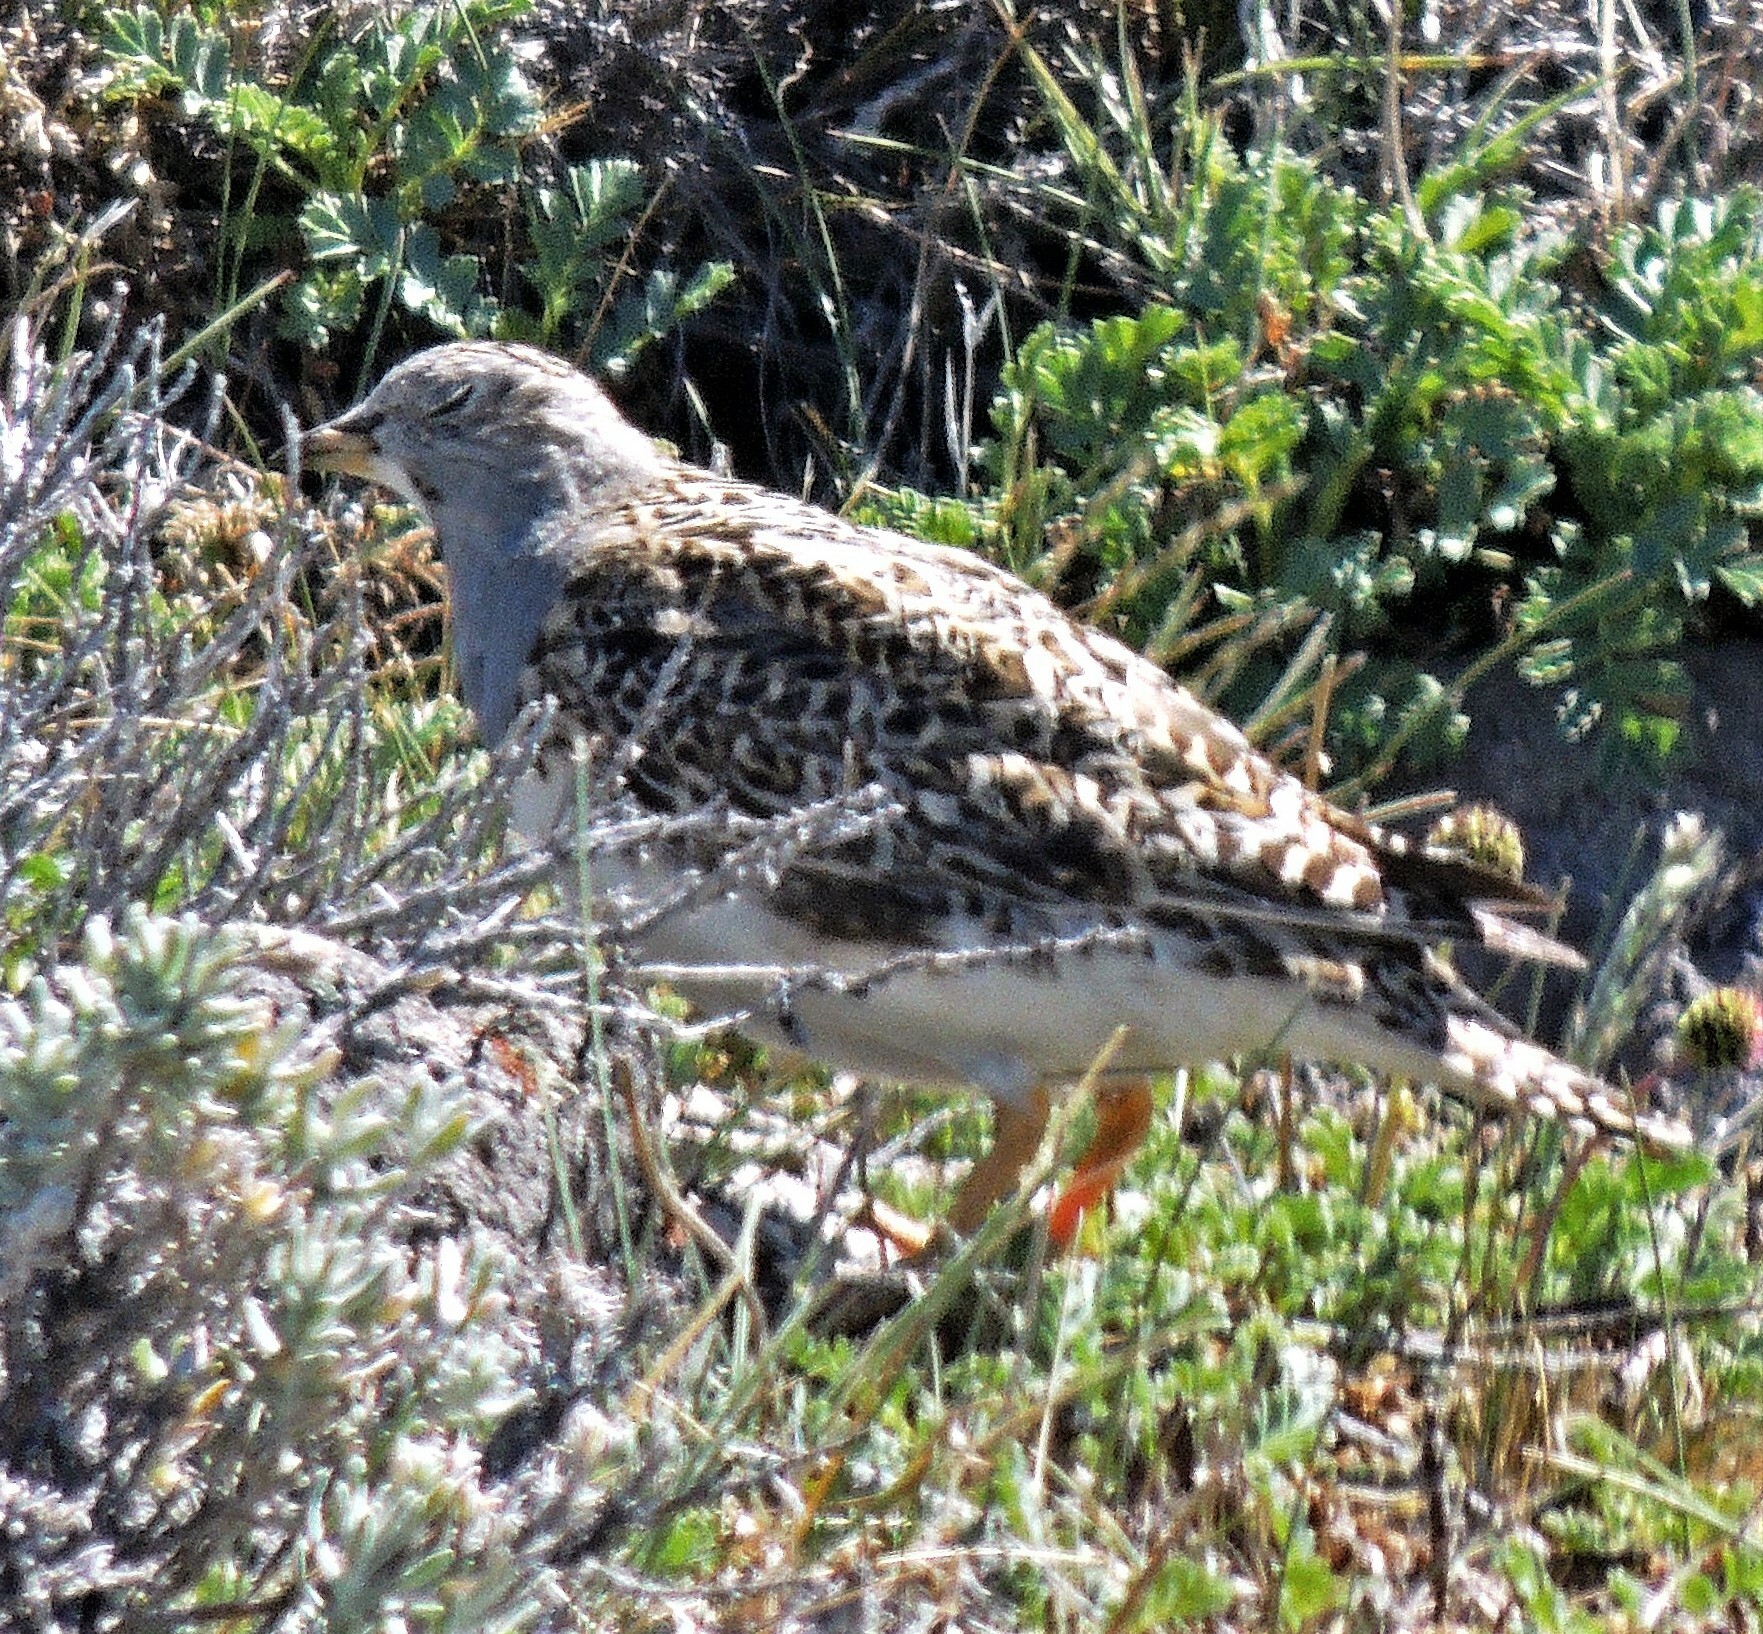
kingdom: Animalia
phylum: Chordata
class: Aves
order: Charadriiformes
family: Thinocoridae
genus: Thinocorus
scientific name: Thinocorus orbignyianus
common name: Grey-breasted seedsnipe
